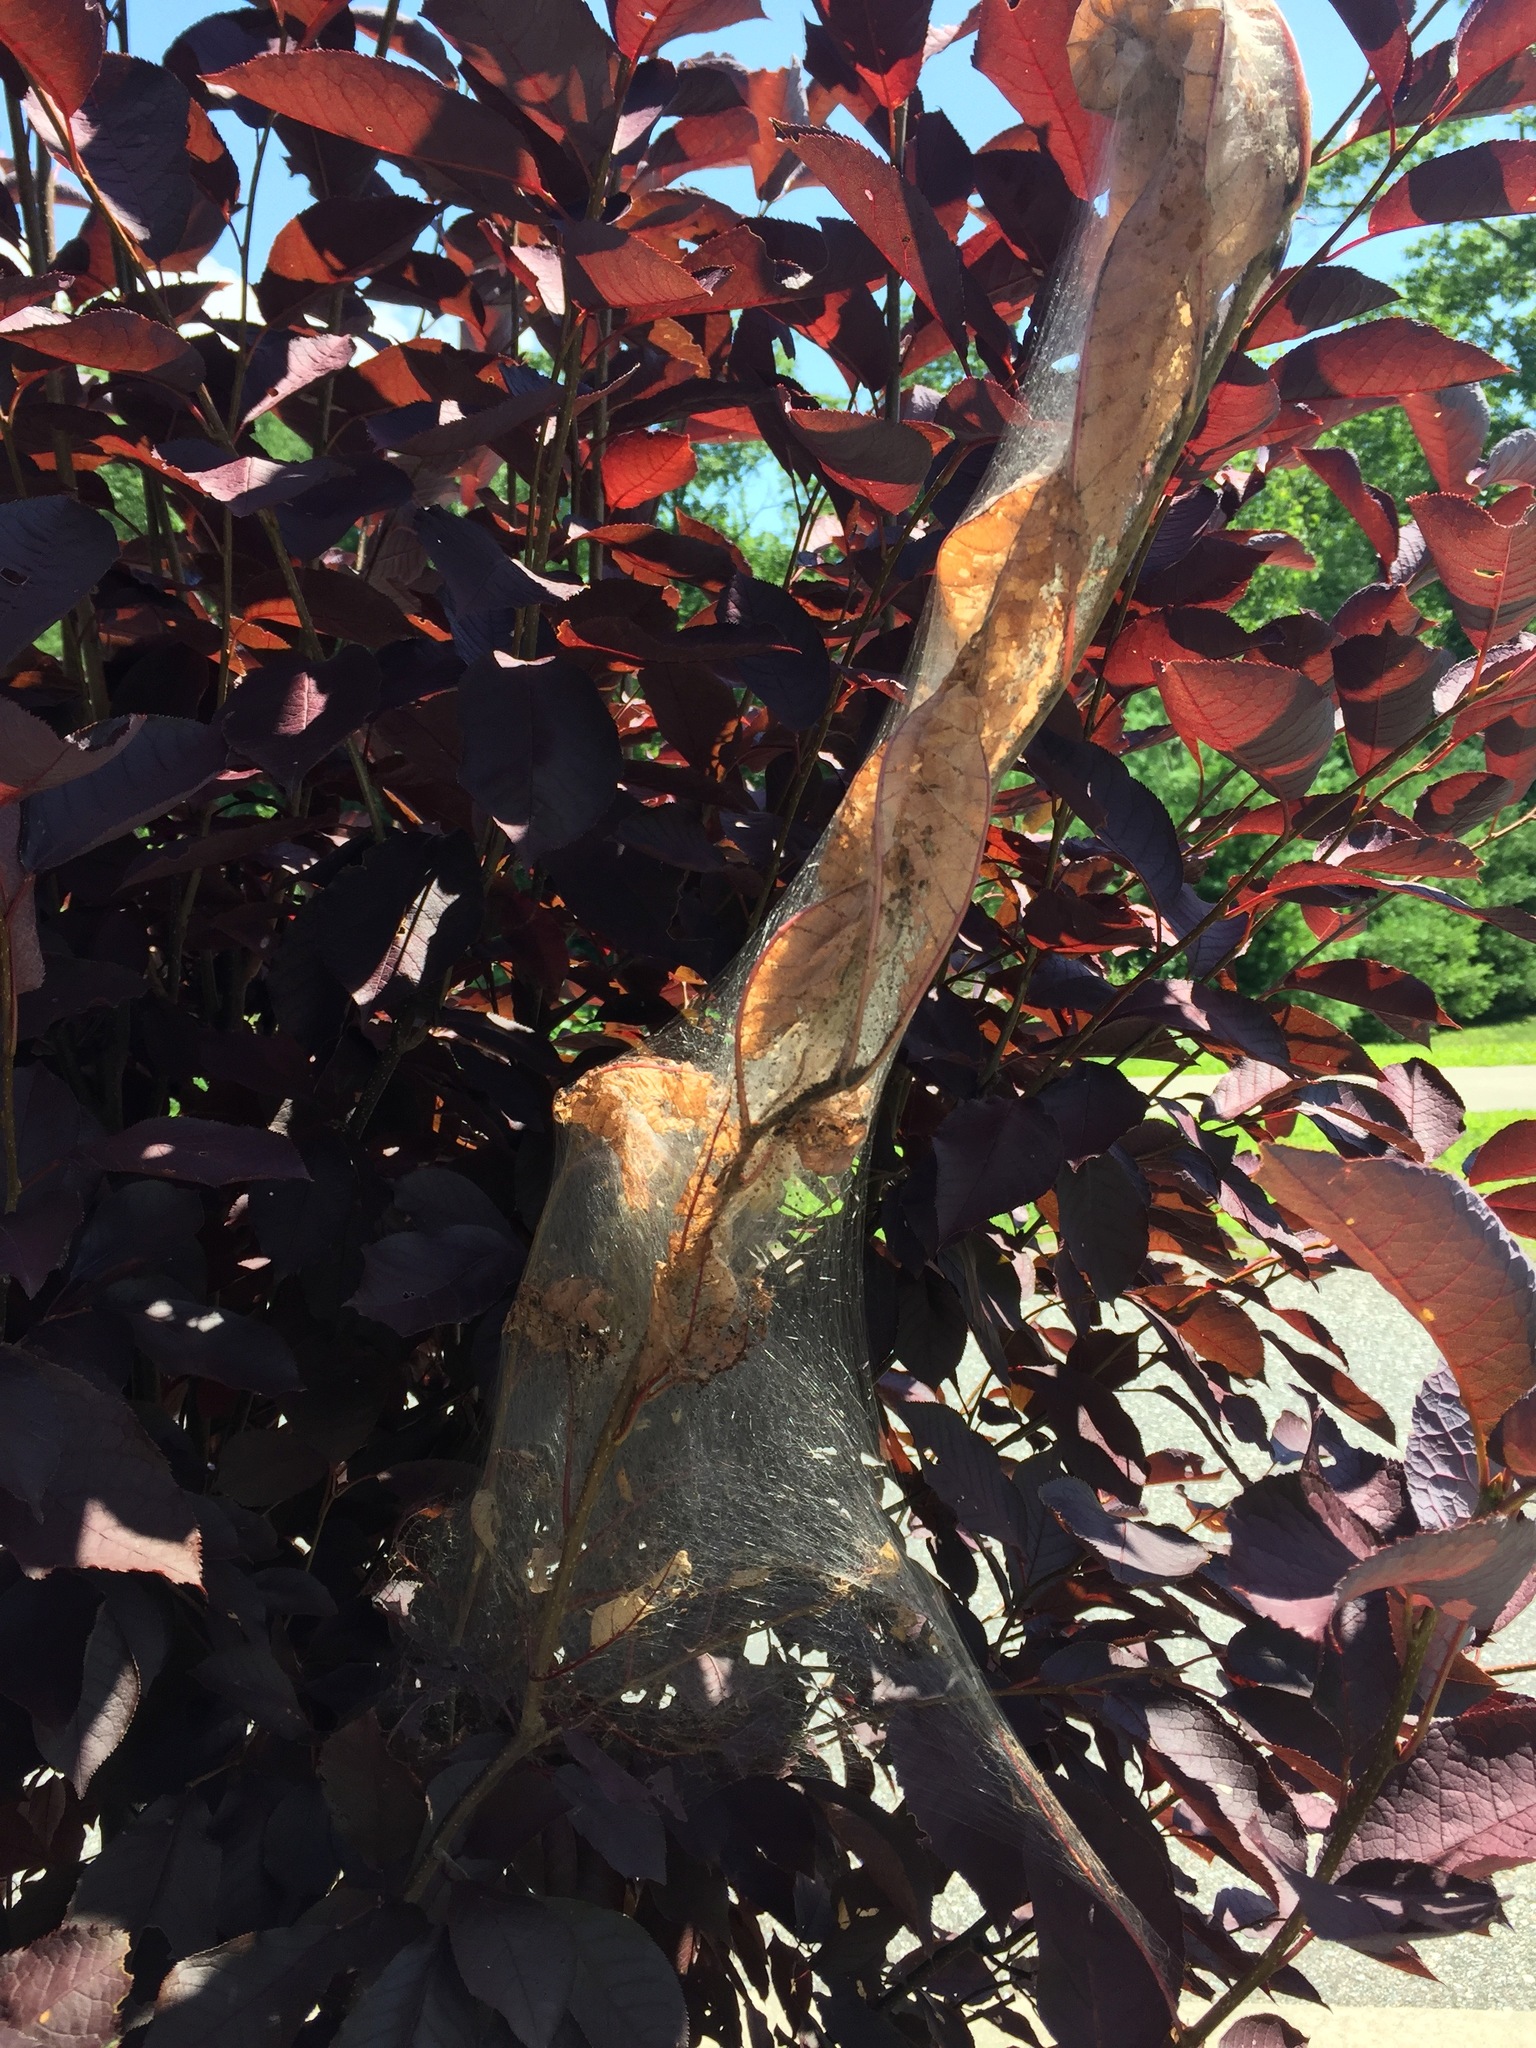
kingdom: Animalia
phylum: Arthropoda
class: Insecta
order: Lepidoptera
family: Erebidae
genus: Hyphantria
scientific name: Hyphantria cunea
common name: American white moth
